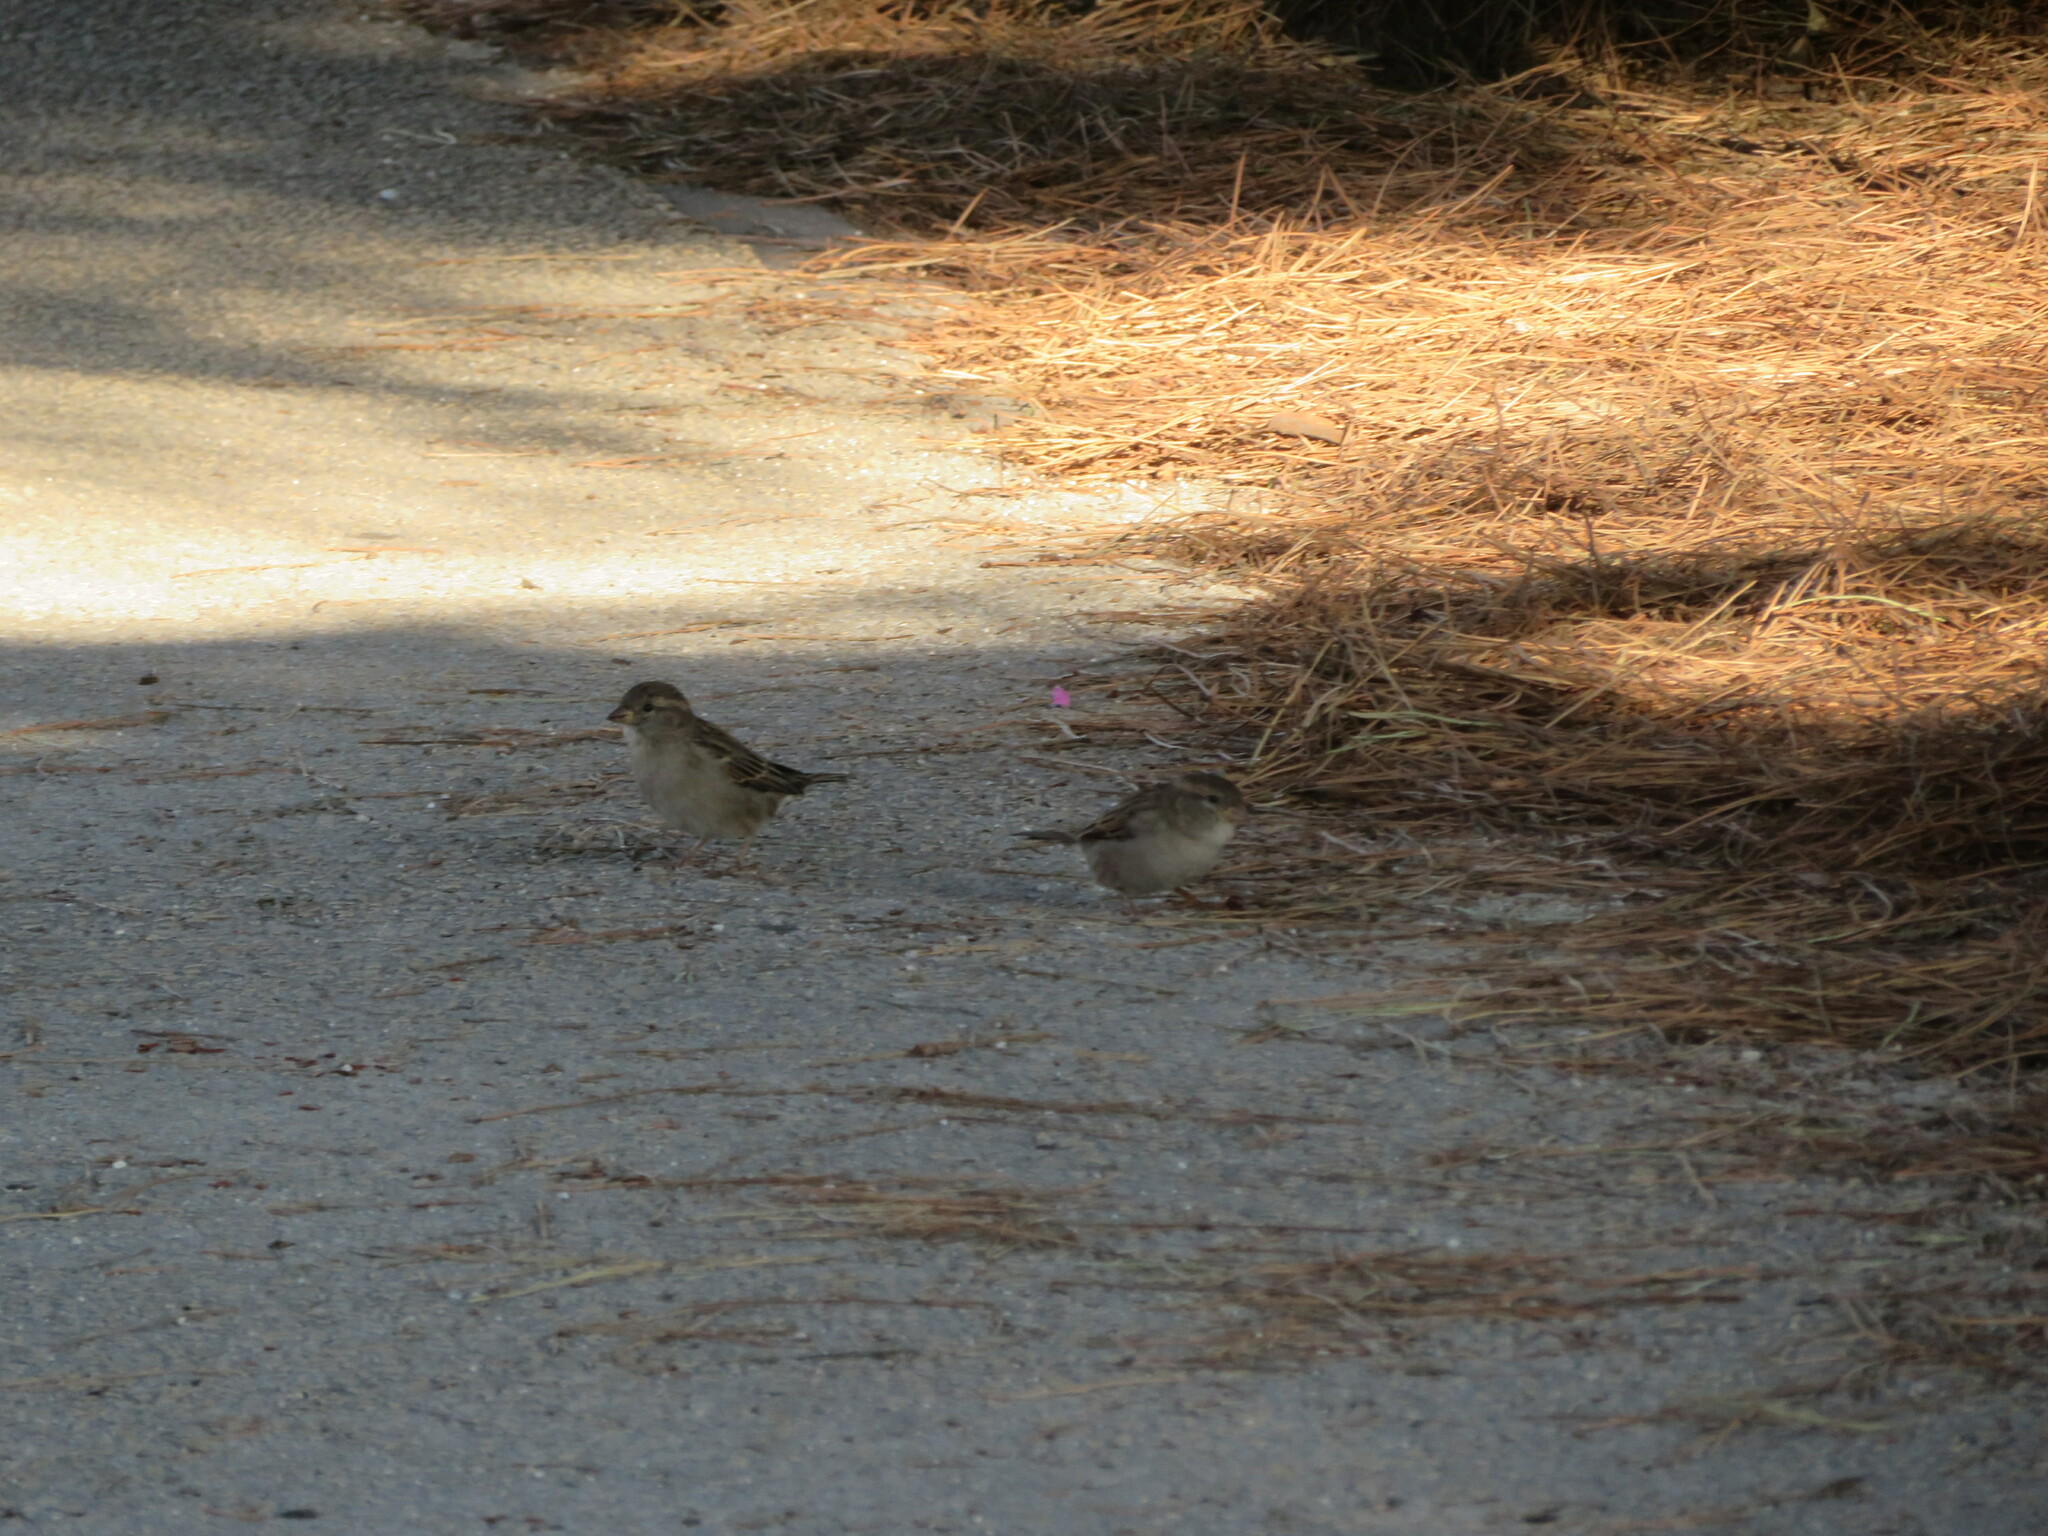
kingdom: Animalia
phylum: Chordata
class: Aves
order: Passeriformes
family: Passeridae
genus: Passer
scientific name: Passer domesticus
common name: House sparrow
